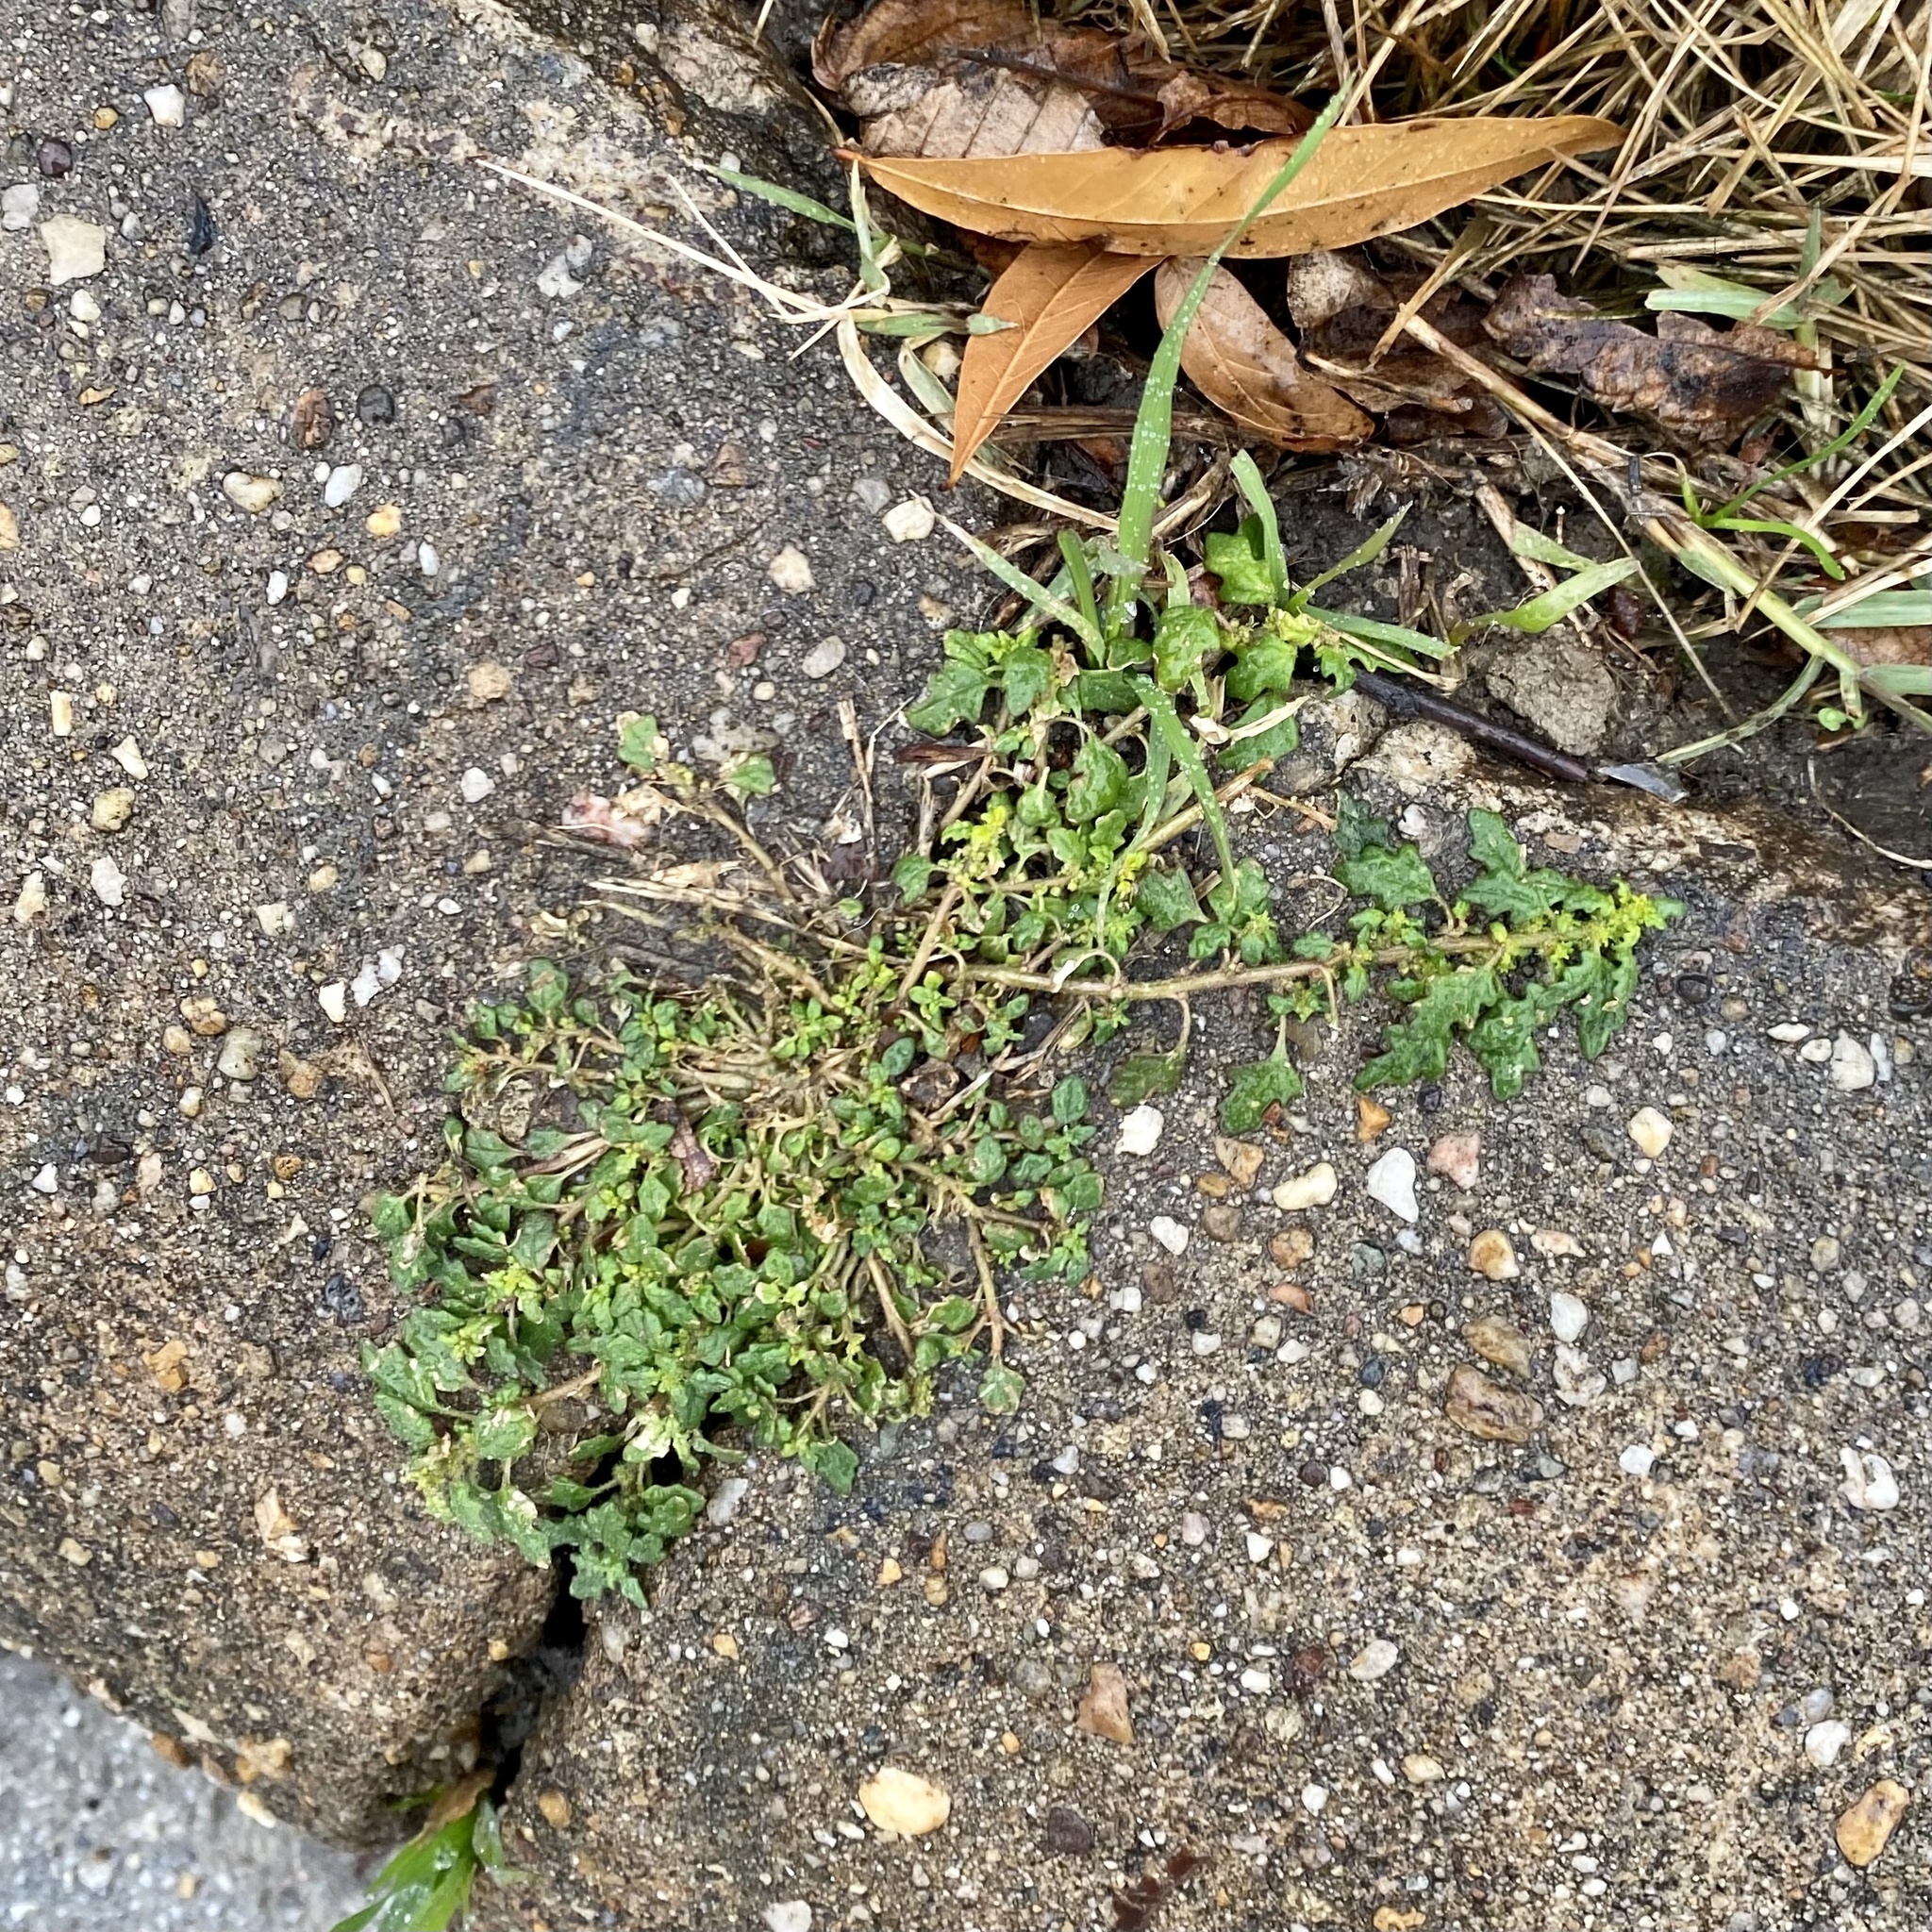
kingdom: Plantae
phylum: Tracheophyta
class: Magnoliopsida
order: Caryophyllales
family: Amaranthaceae
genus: Dysphania
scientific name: Dysphania pumilio
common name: Clammy goosefoot
